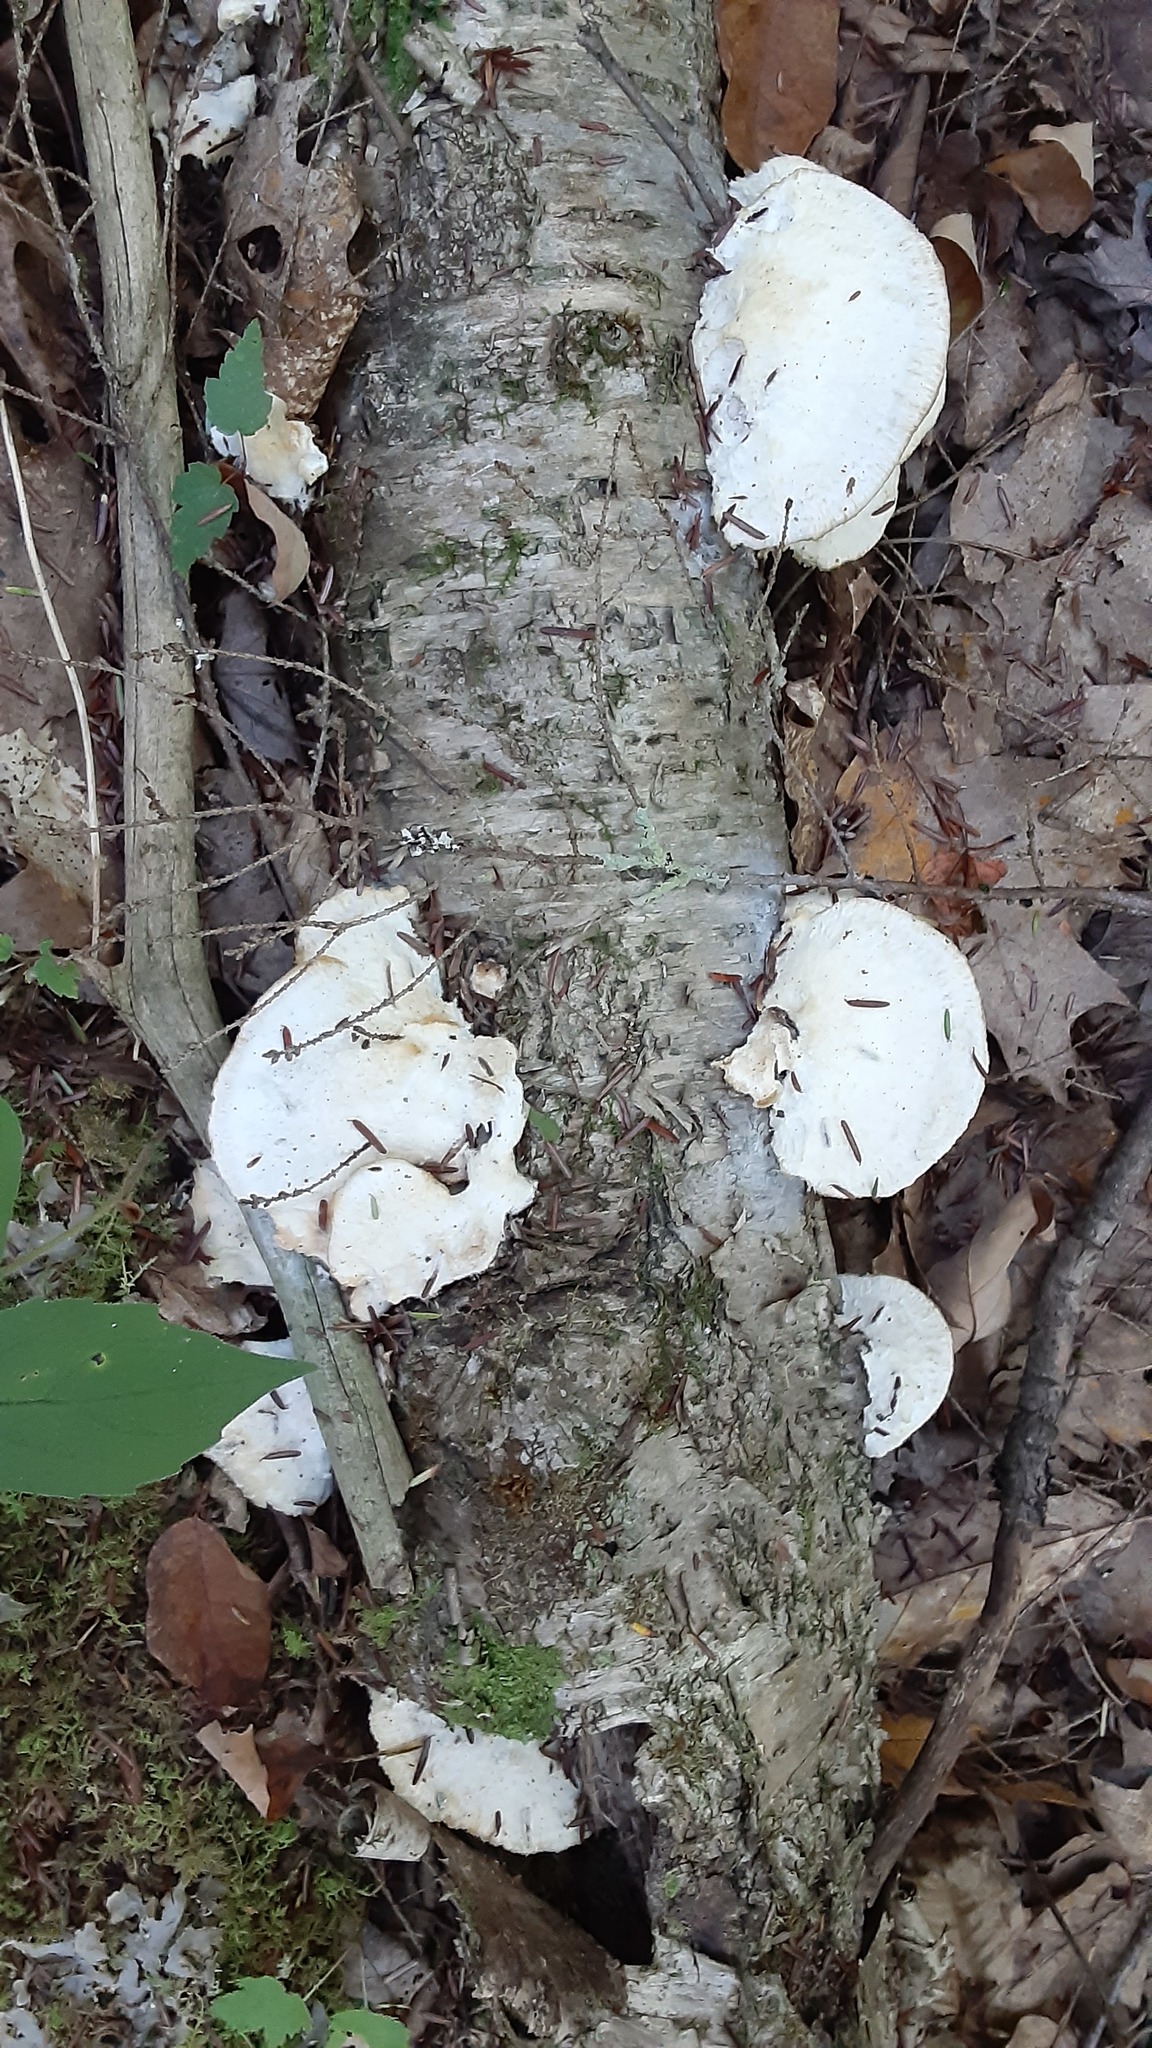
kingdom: Fungi
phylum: Basidiomycota
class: Agaricomycetes
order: Polyporales
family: Incrustoporiaceae
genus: Tyromyces
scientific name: Tyromyces chioneus
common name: White cheese polypore
